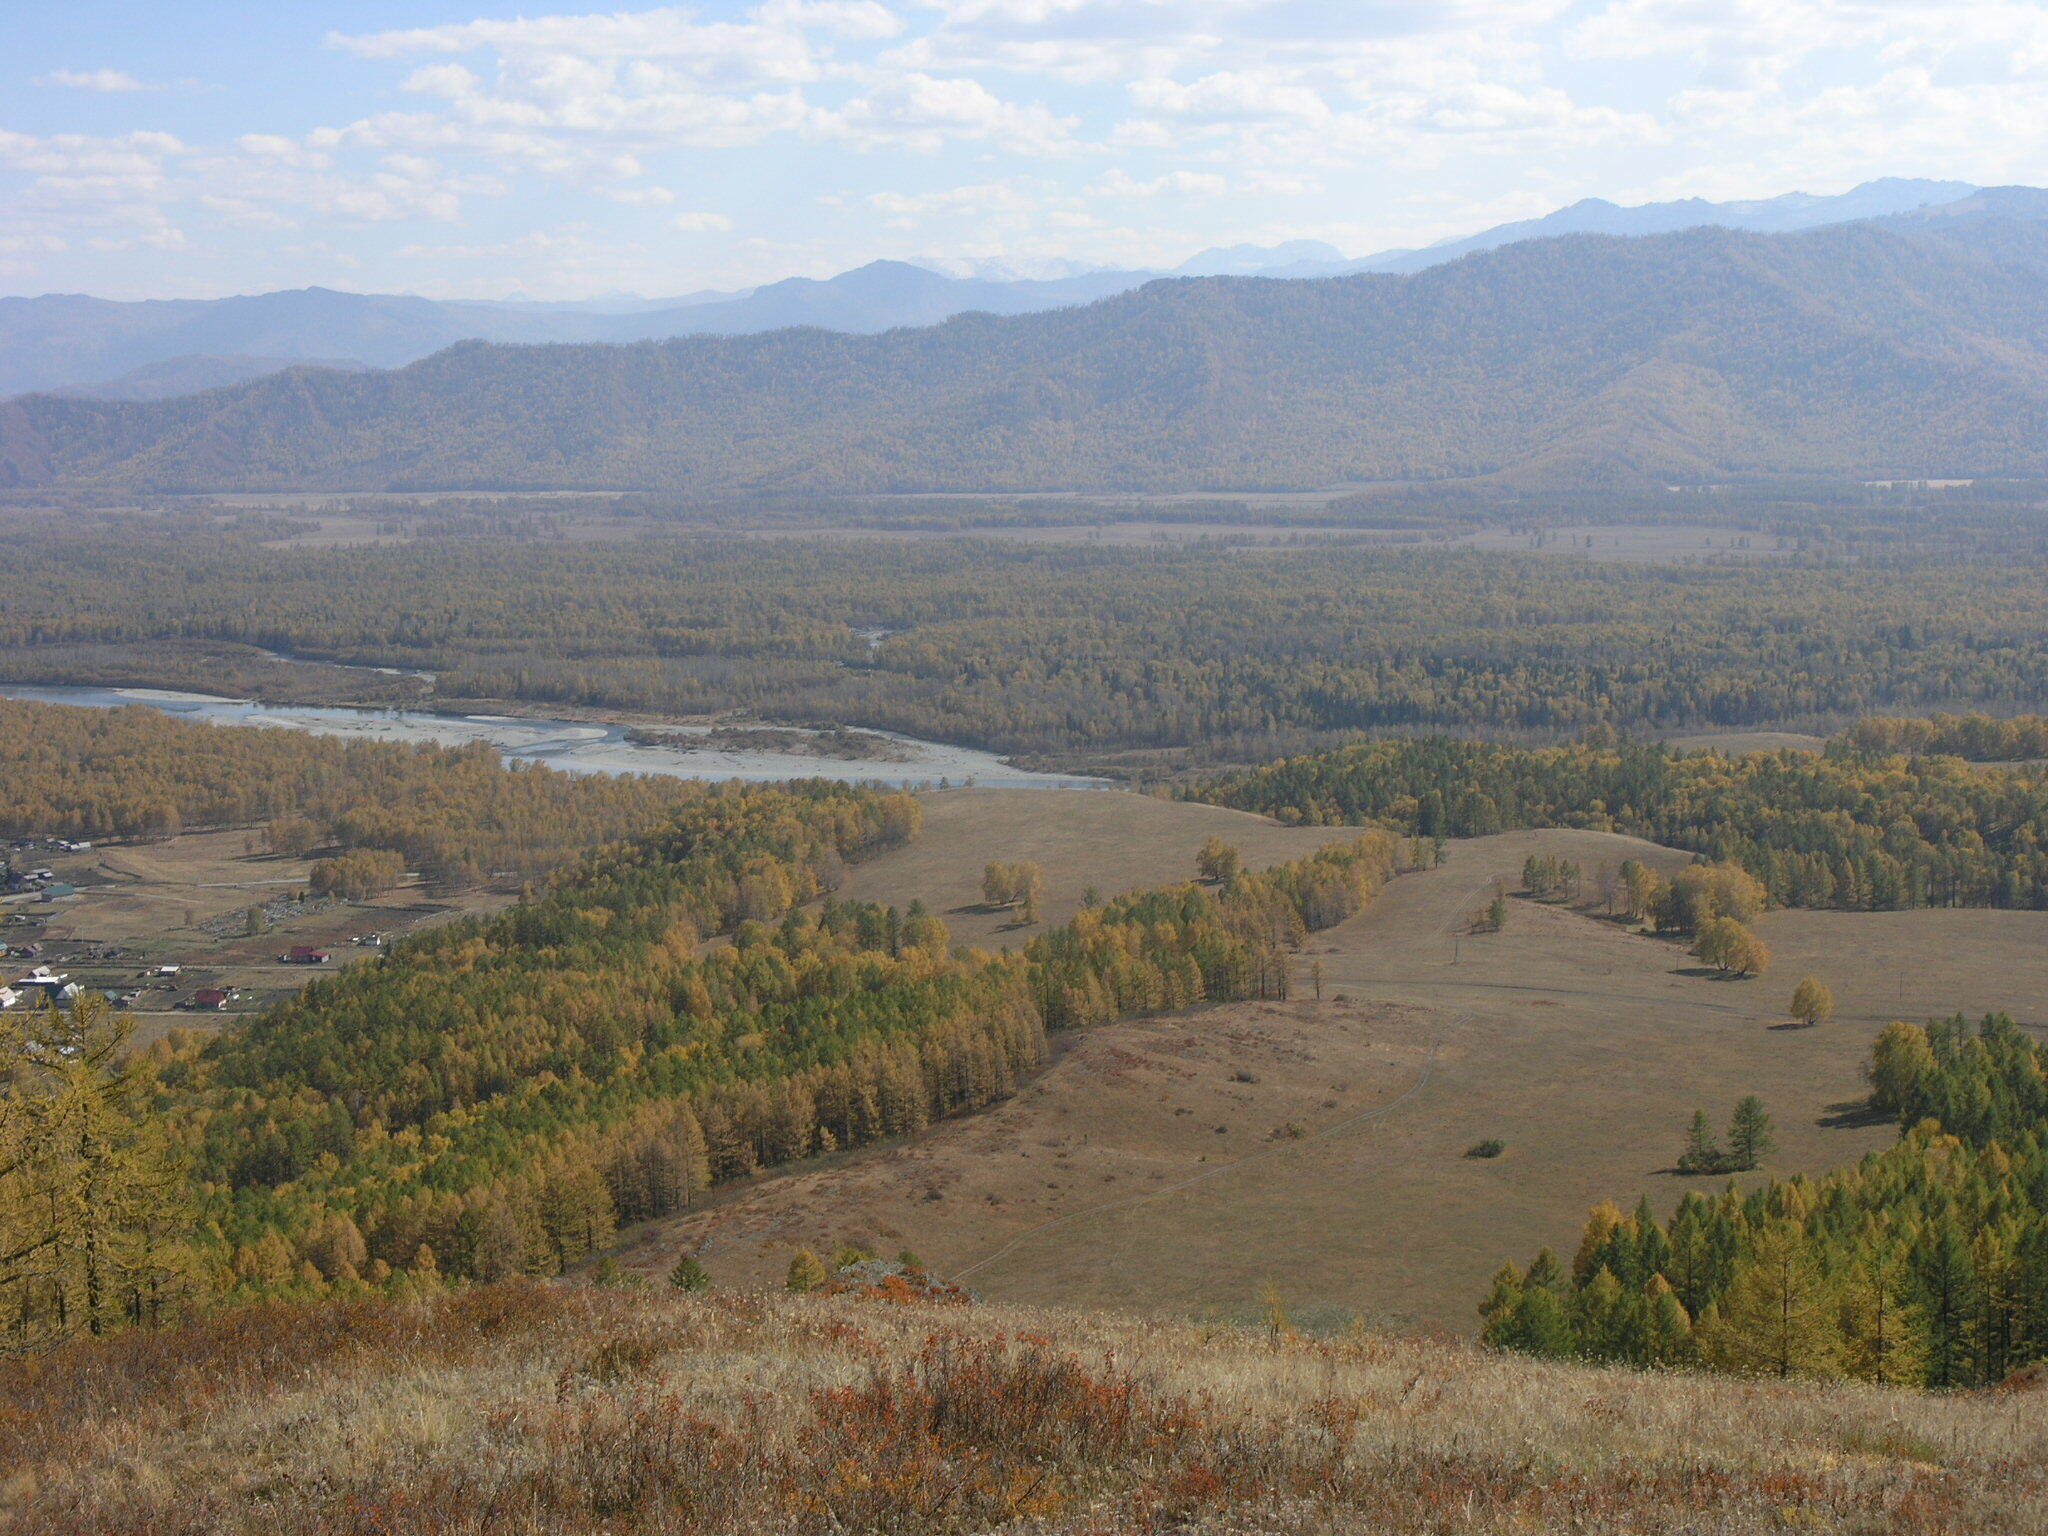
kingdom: Plantae
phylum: Tracheophyta
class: Pinopsida
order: Pinales
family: Pinaceae
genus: Larix
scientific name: Larix sibirica
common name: Siberian larch
